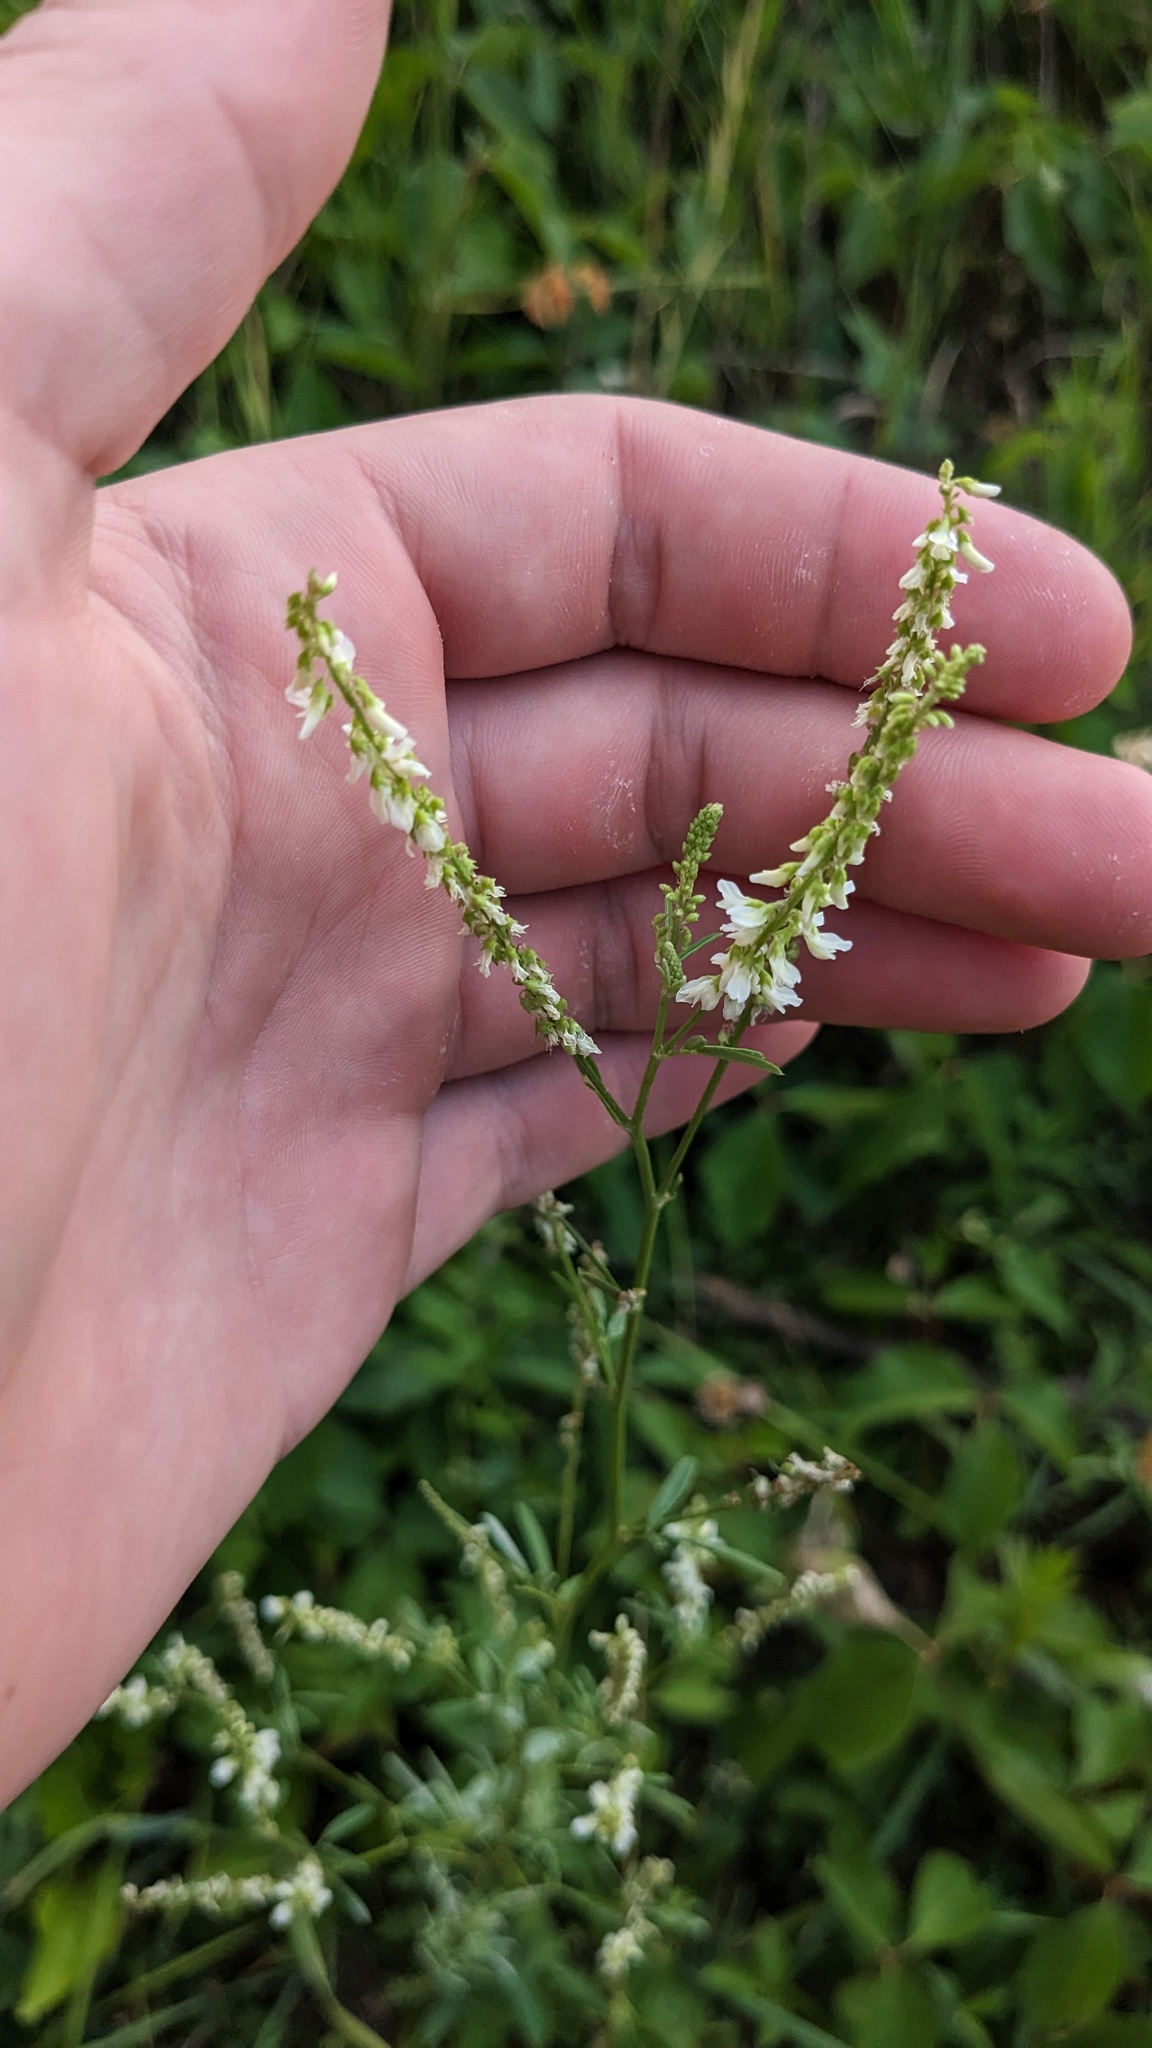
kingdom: Plantae
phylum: Tracheophyta
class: Magnoliopsida
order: Fabales
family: Fabaceae
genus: Melilotus
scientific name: Melilotus albus
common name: White melilot
